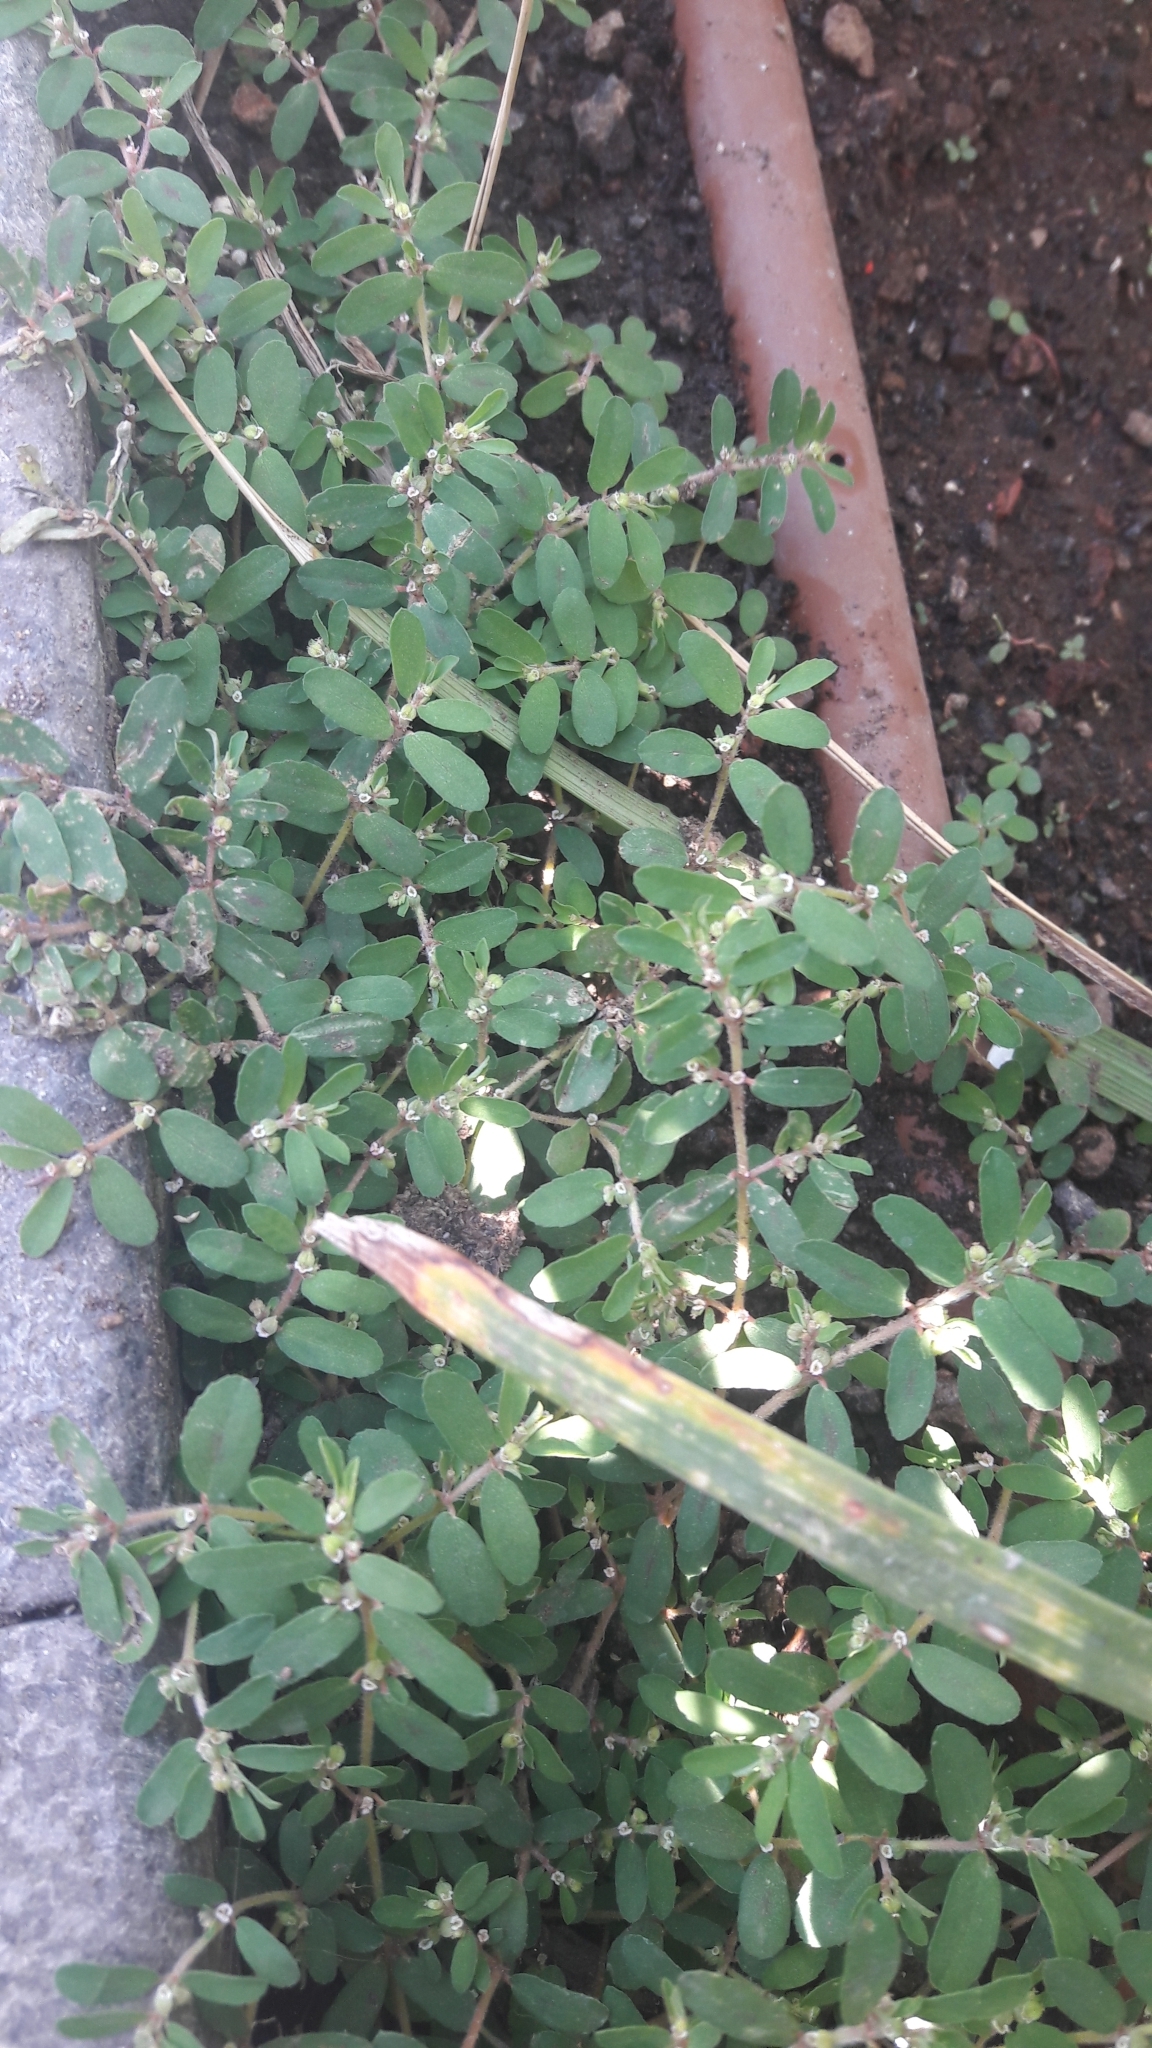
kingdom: Plantae
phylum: Tracheophyta
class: Magnoliopsida
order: Malpighiales
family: Euphorbiaceae
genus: Euphorbia
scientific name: Euphorbia maculata
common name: Spotted spurge
